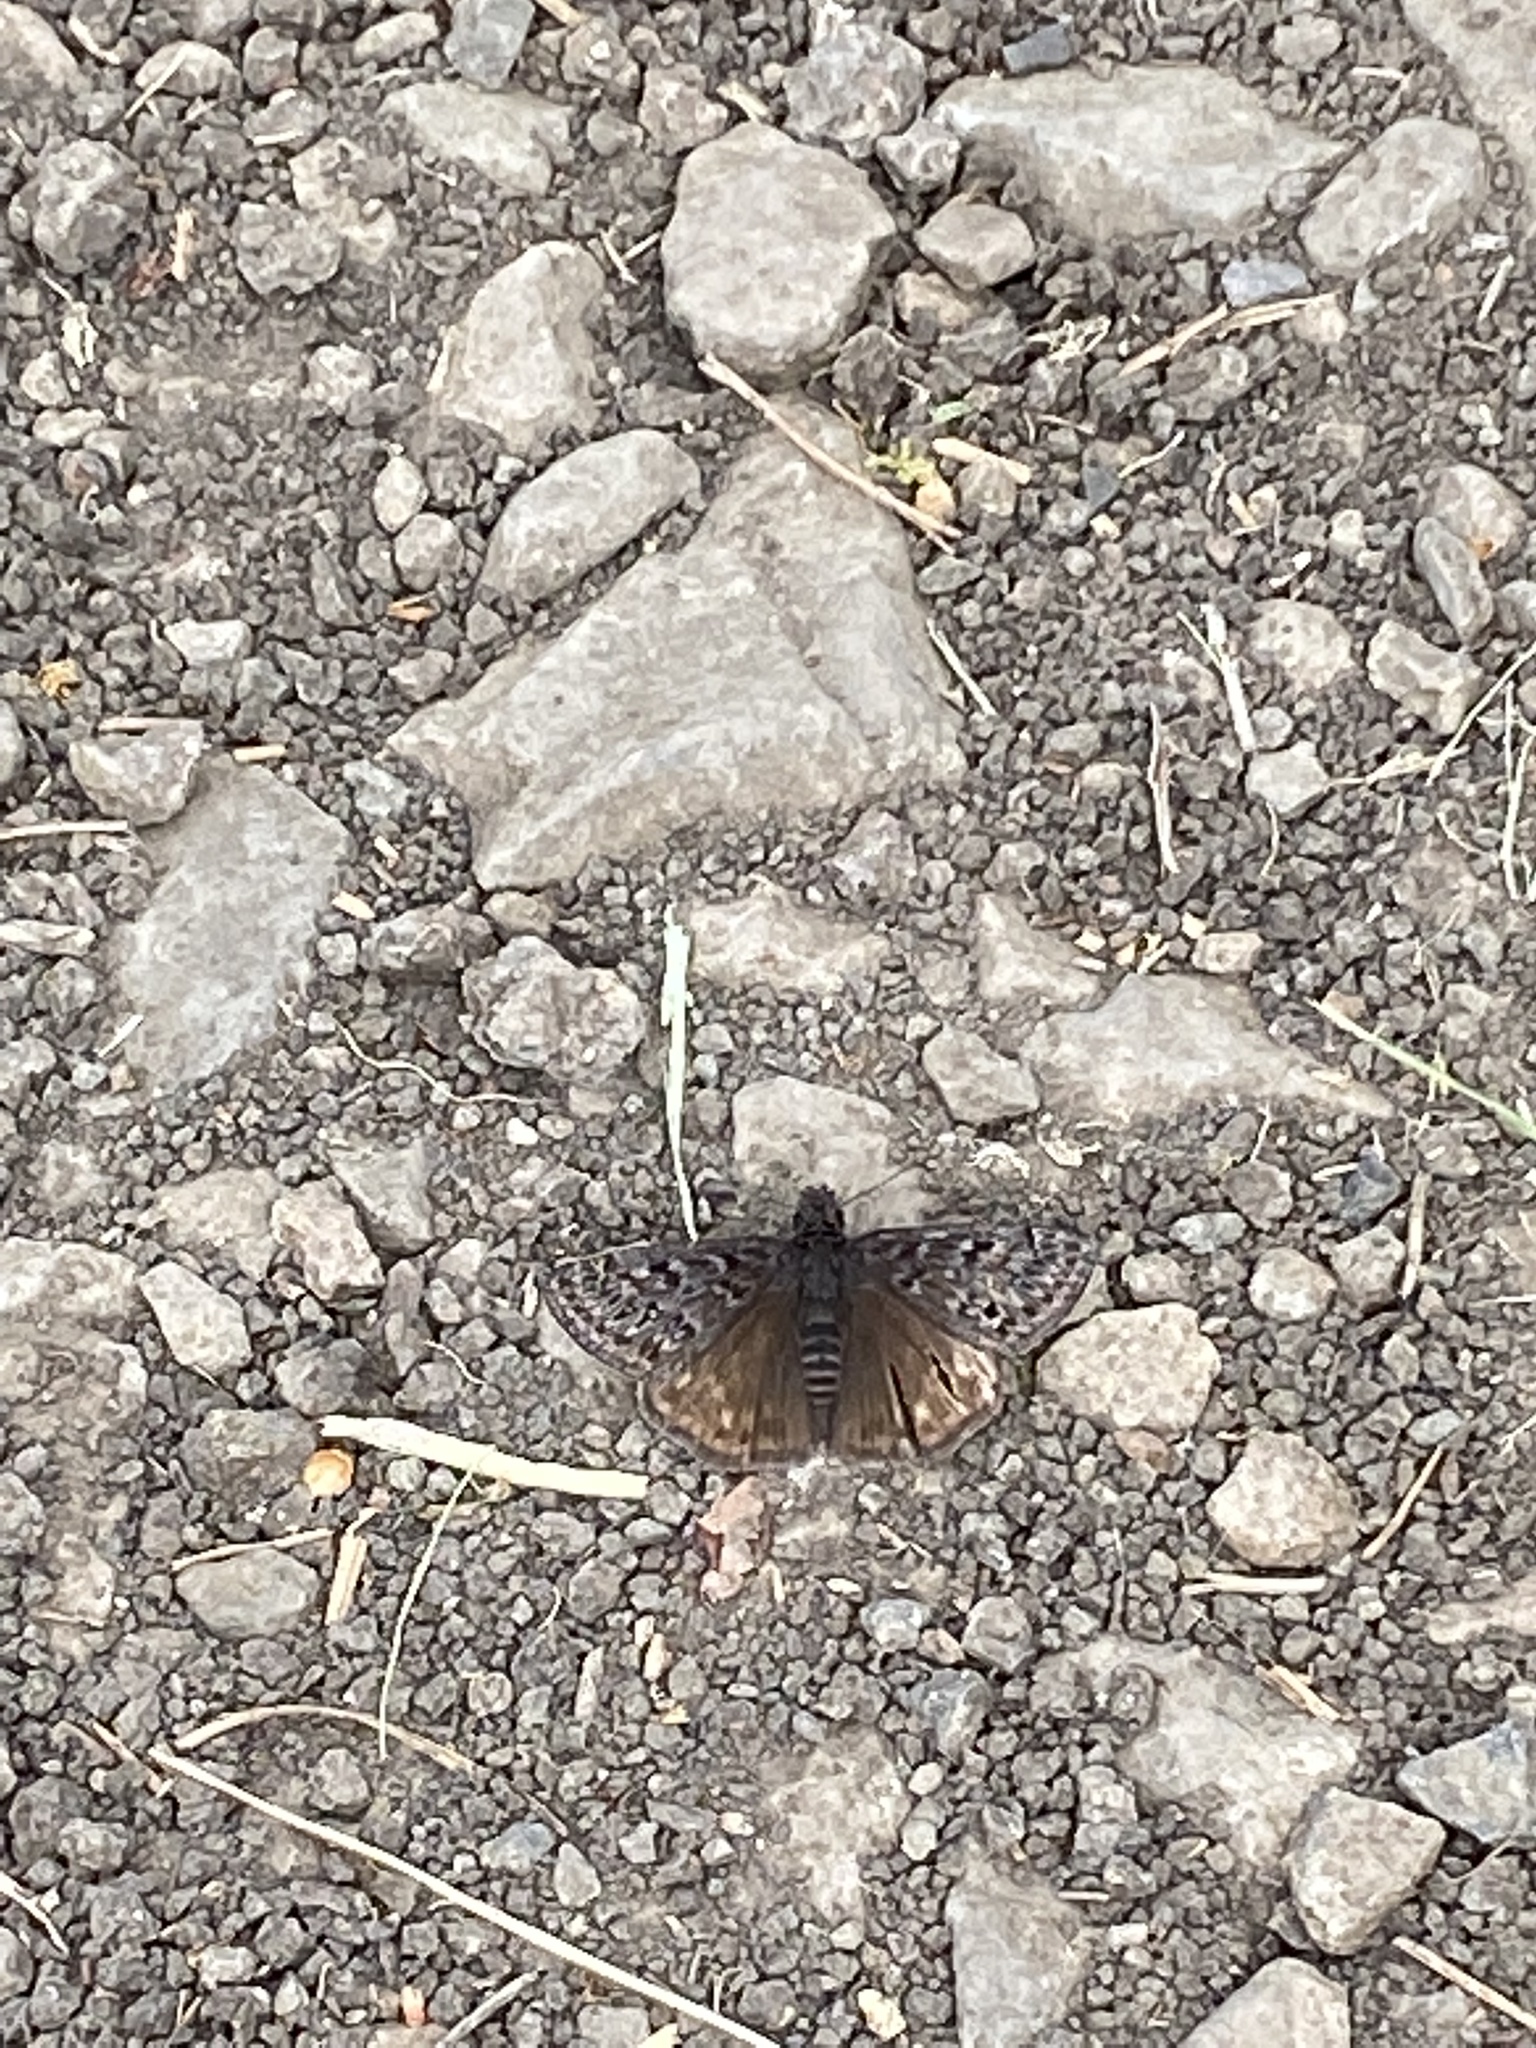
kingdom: Animalia
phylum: Arthropoda
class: Insecta
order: Lepidoptera
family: Hesperiidae
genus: Erynnis
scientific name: Erynnis propertius
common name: Propertius duskywing
